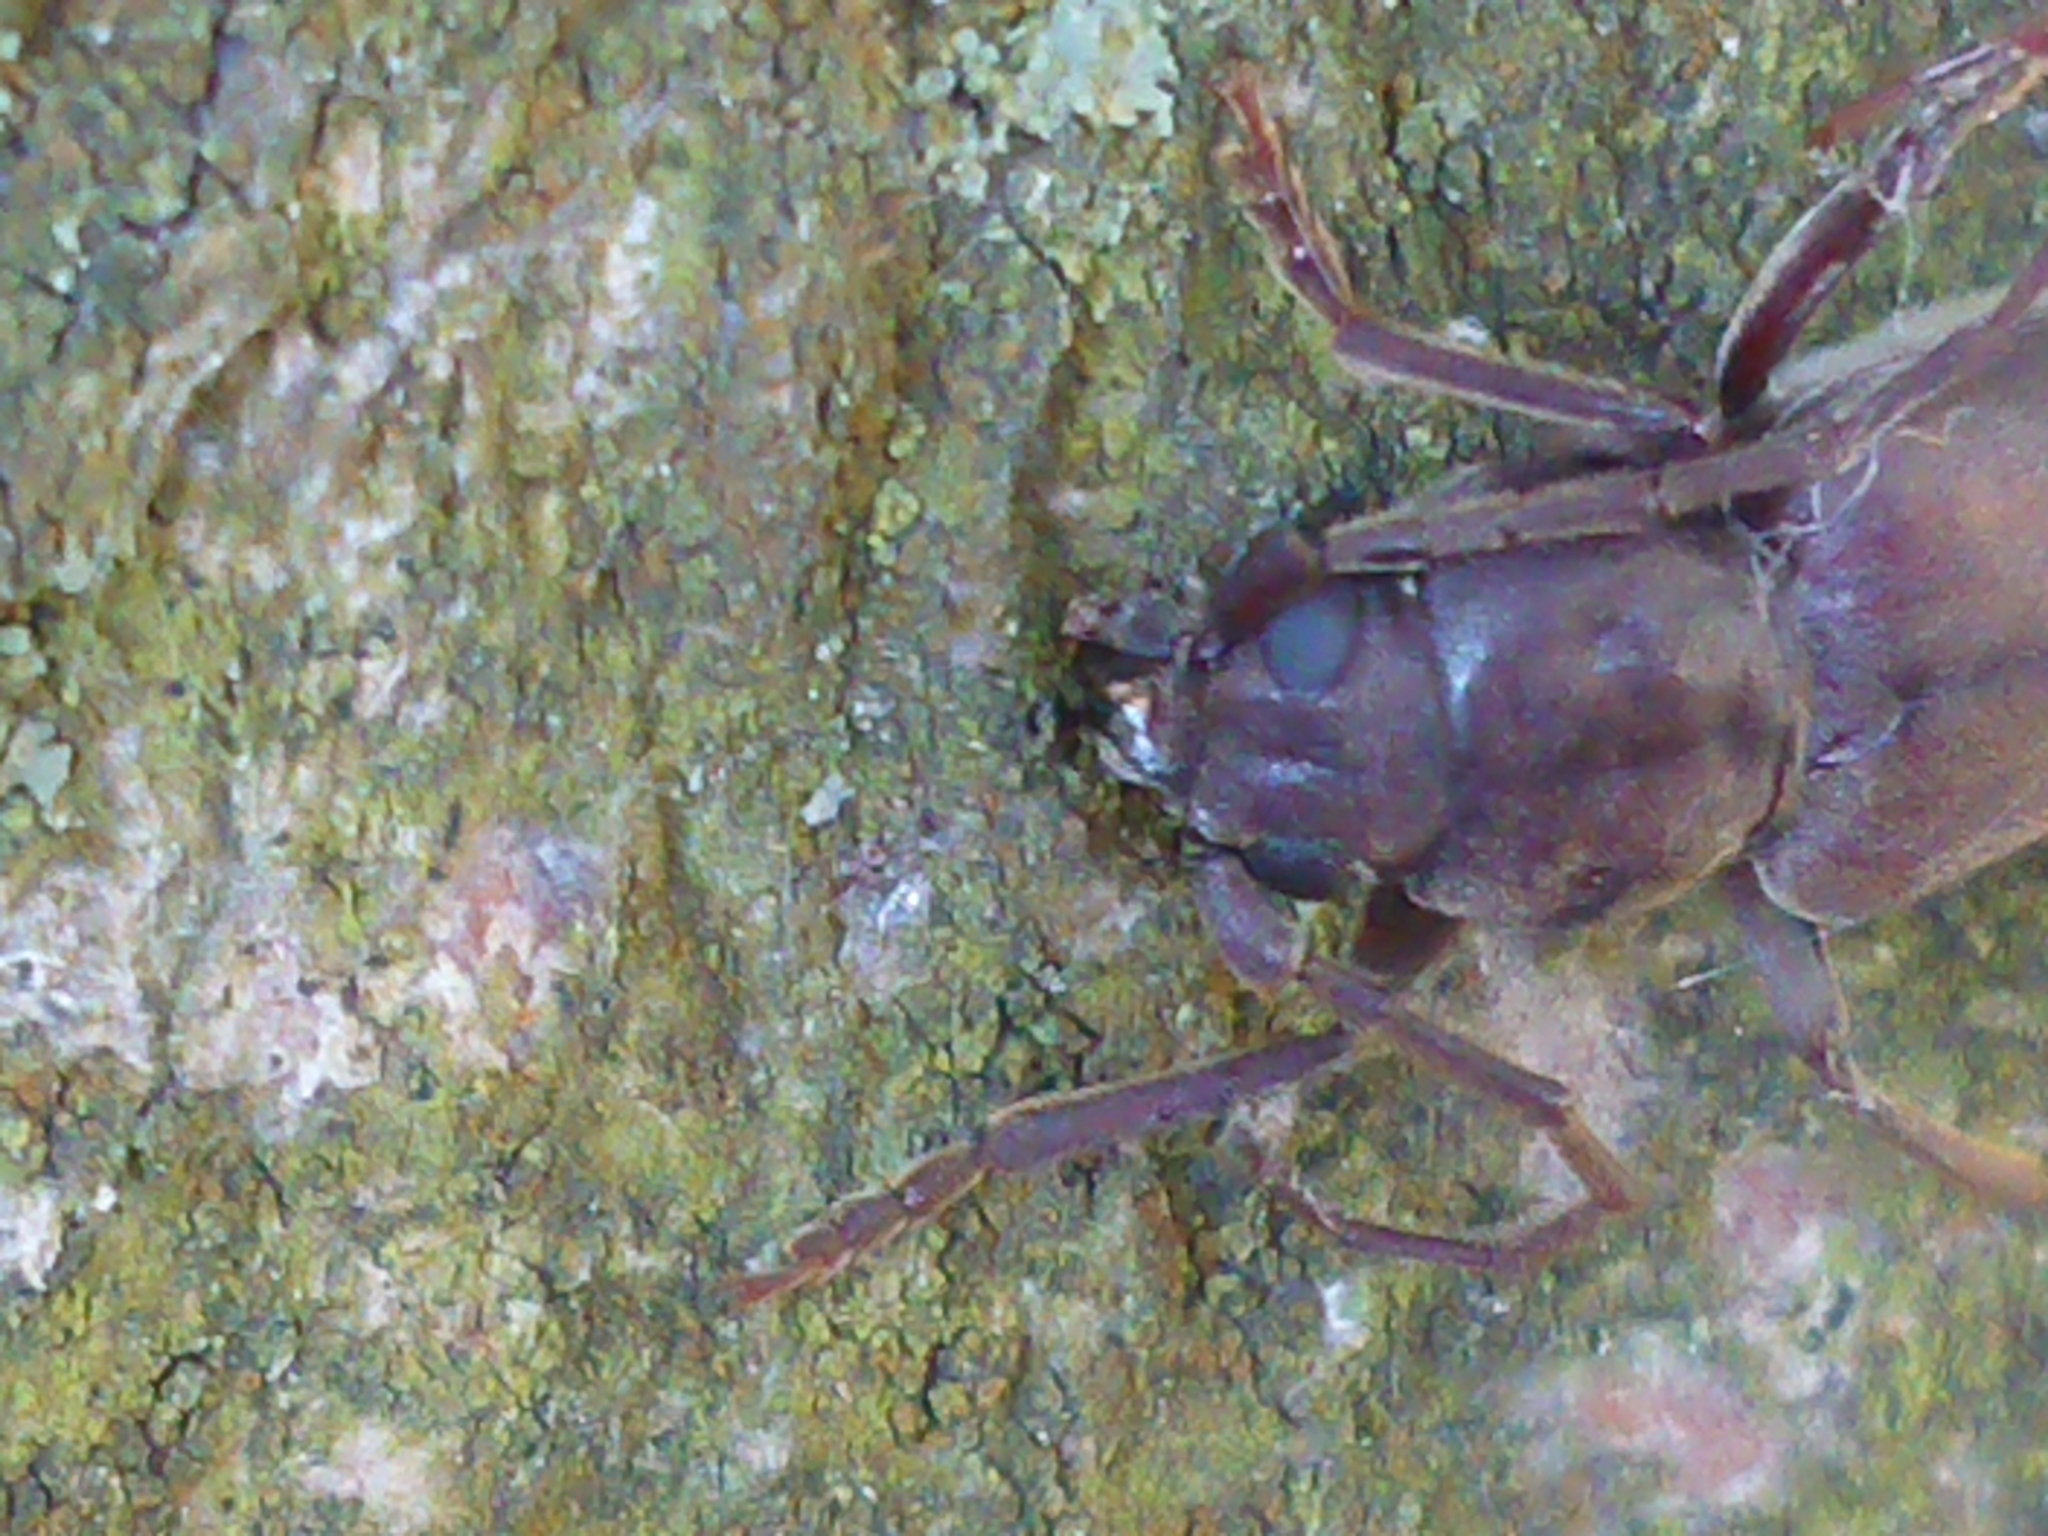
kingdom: Animalia
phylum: Arthropoda
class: Insecta
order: Coleoptera
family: Cerambycidae
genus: Arhopalus
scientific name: Arhopalus ferus
